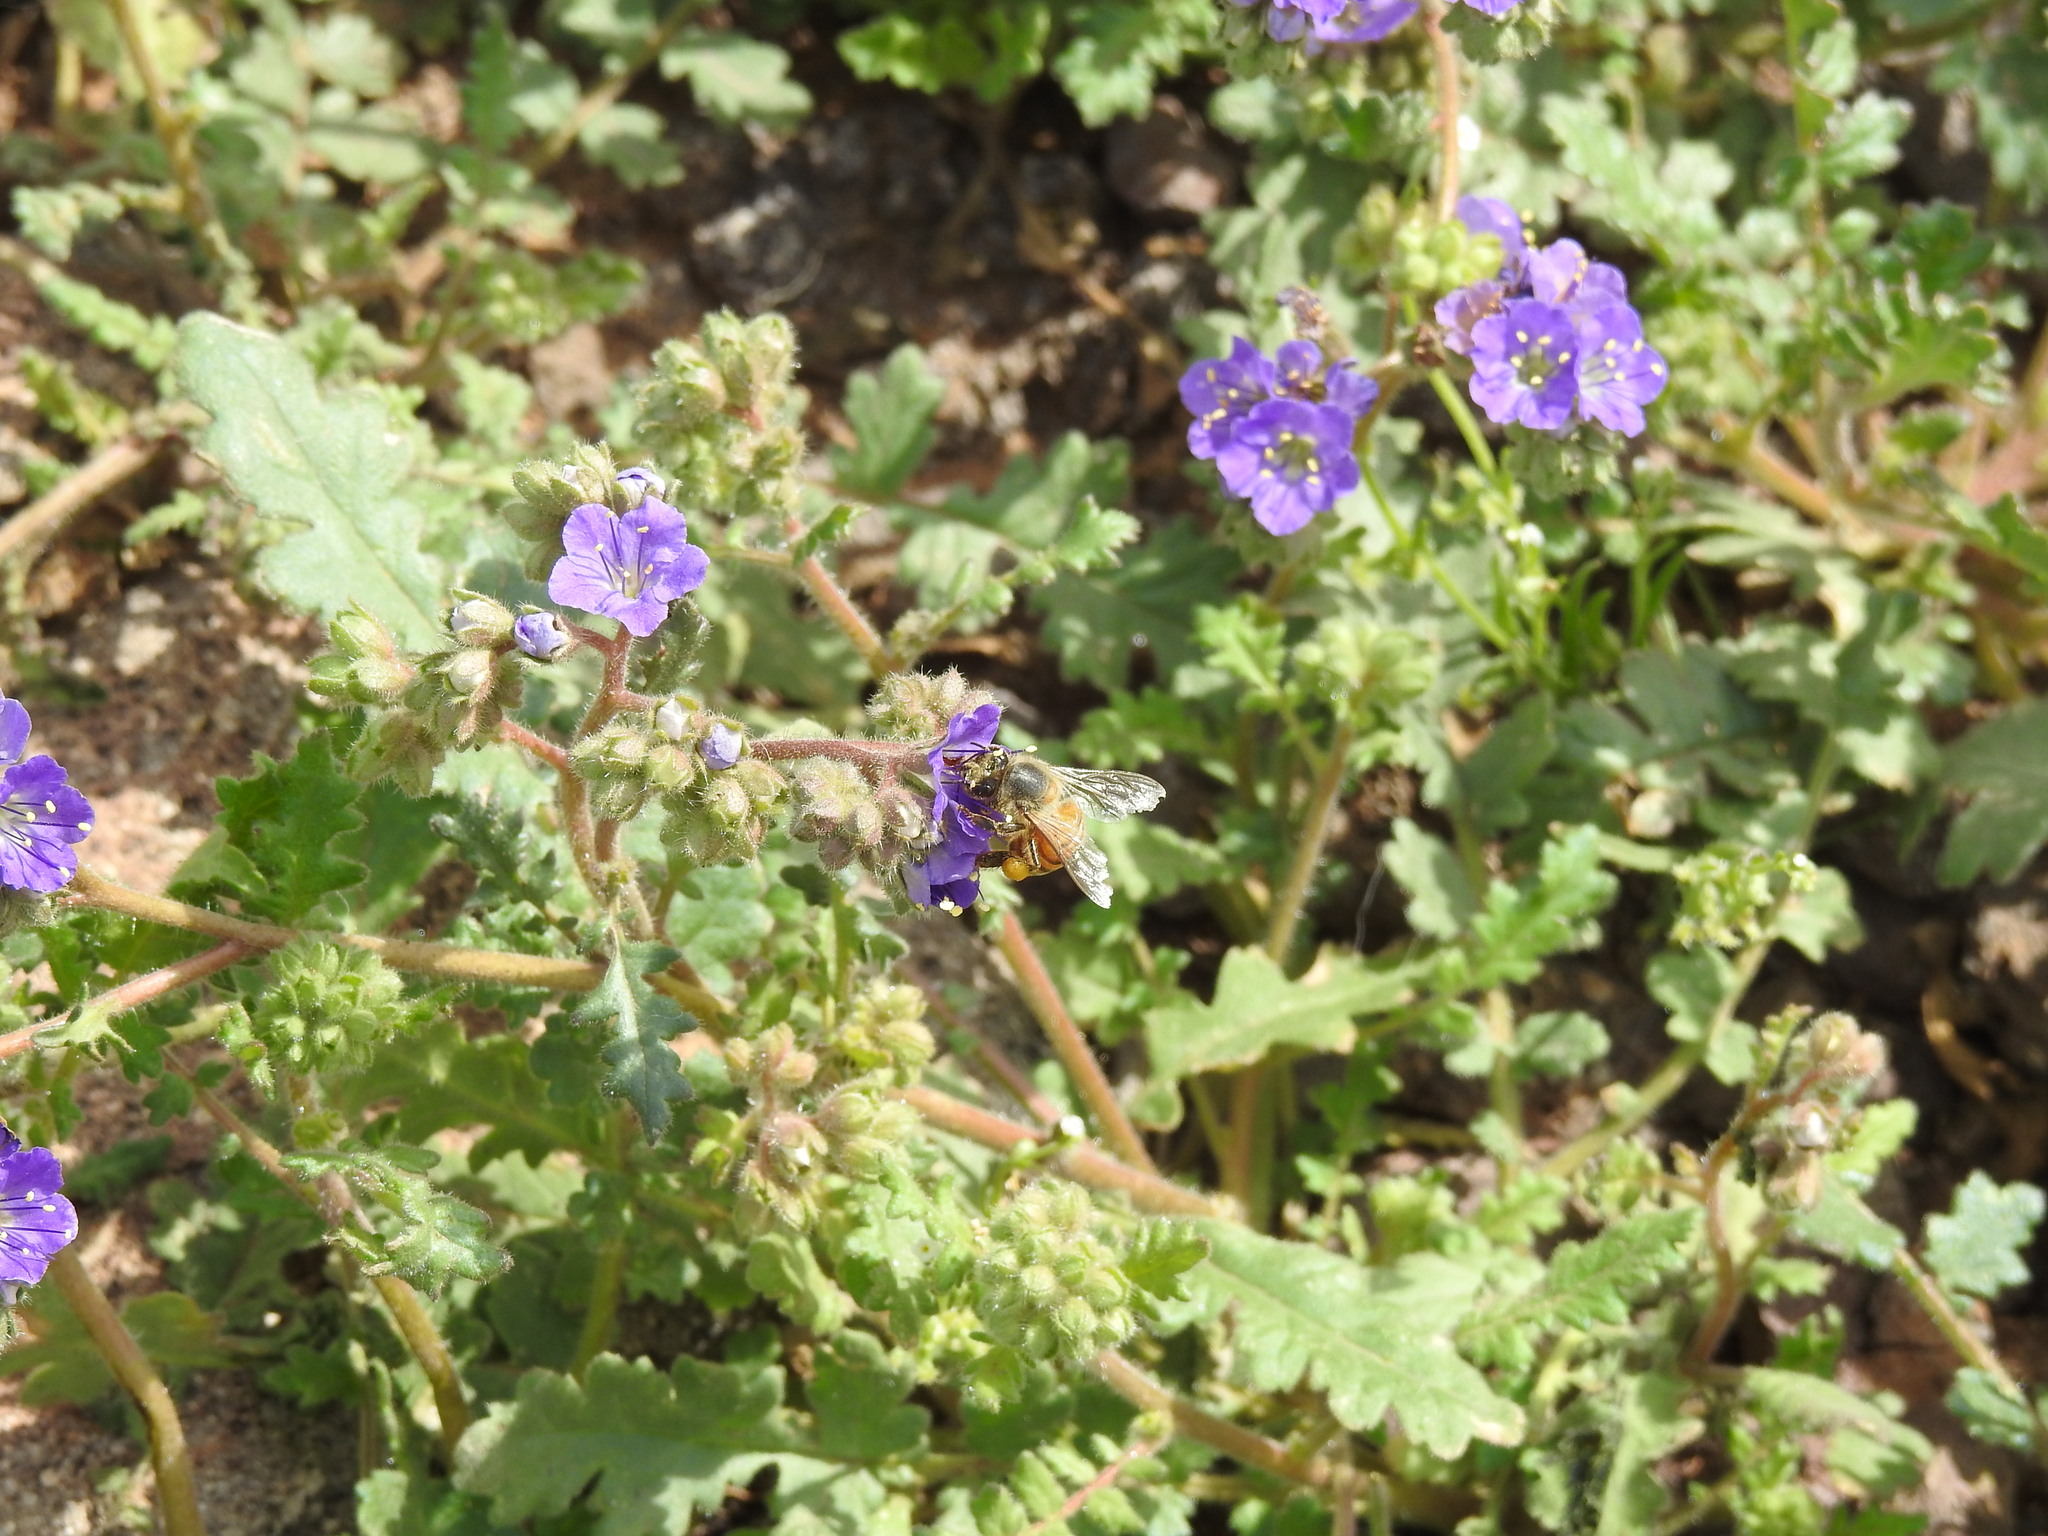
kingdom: Animalia
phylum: Arthropoda
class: Insecta
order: Hymenoptera
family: Apidae
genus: Apis
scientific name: Apis mellifera
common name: Honey bee
